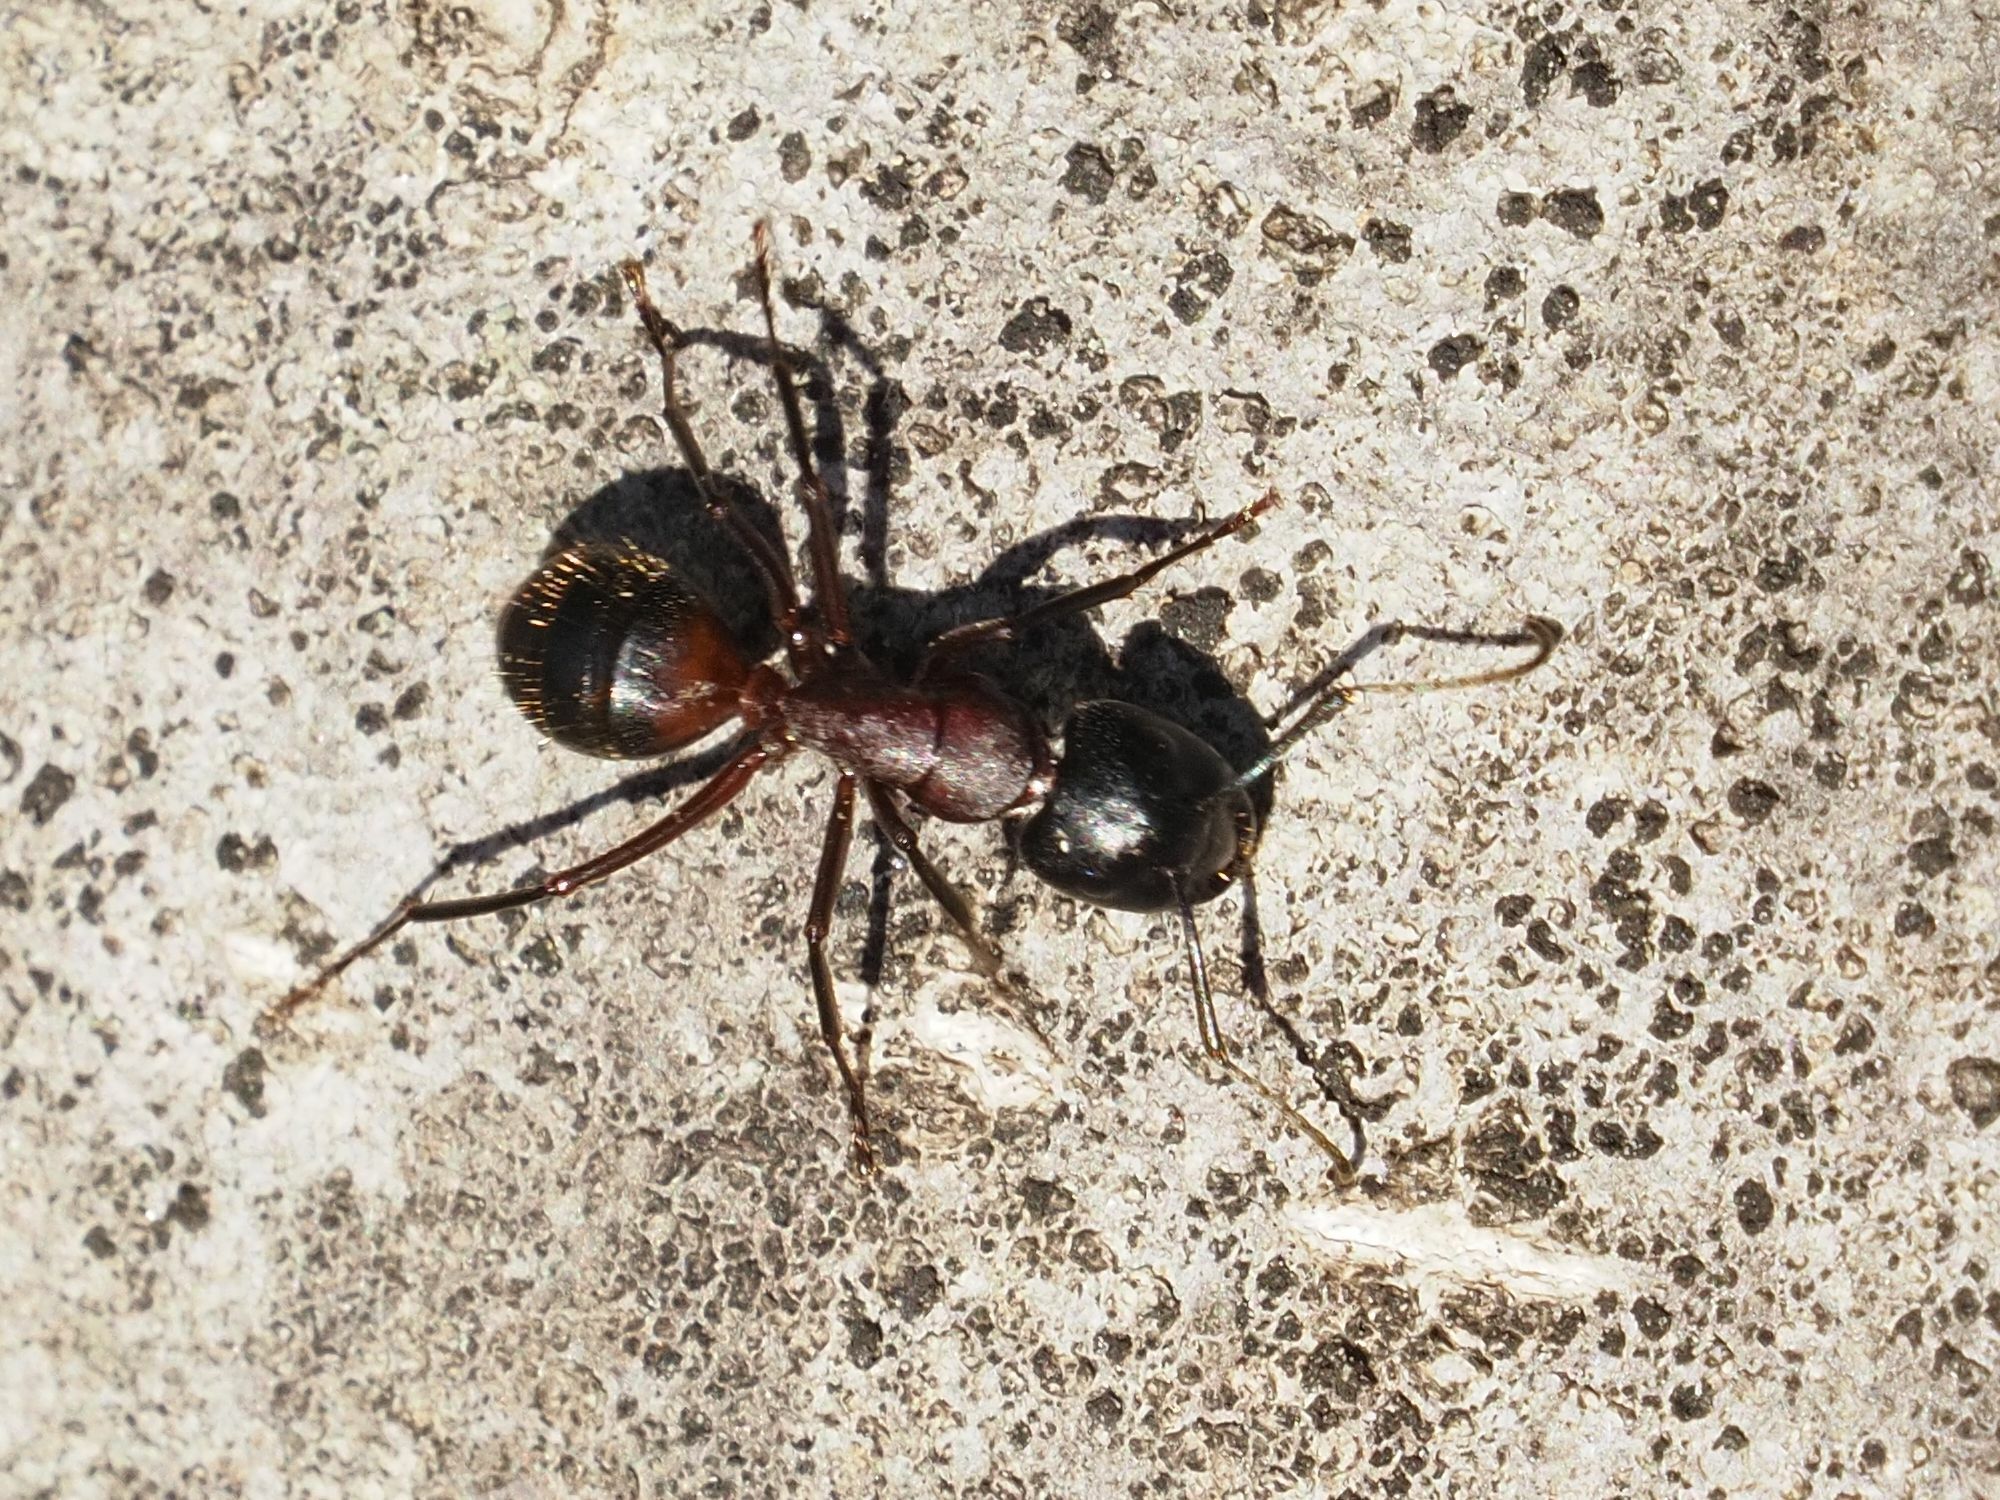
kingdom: Animalia
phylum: Arthropoda
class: Insecta
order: Hymenoptera
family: Formicidae
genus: Camponotus
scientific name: Camponotus ligniperdus
